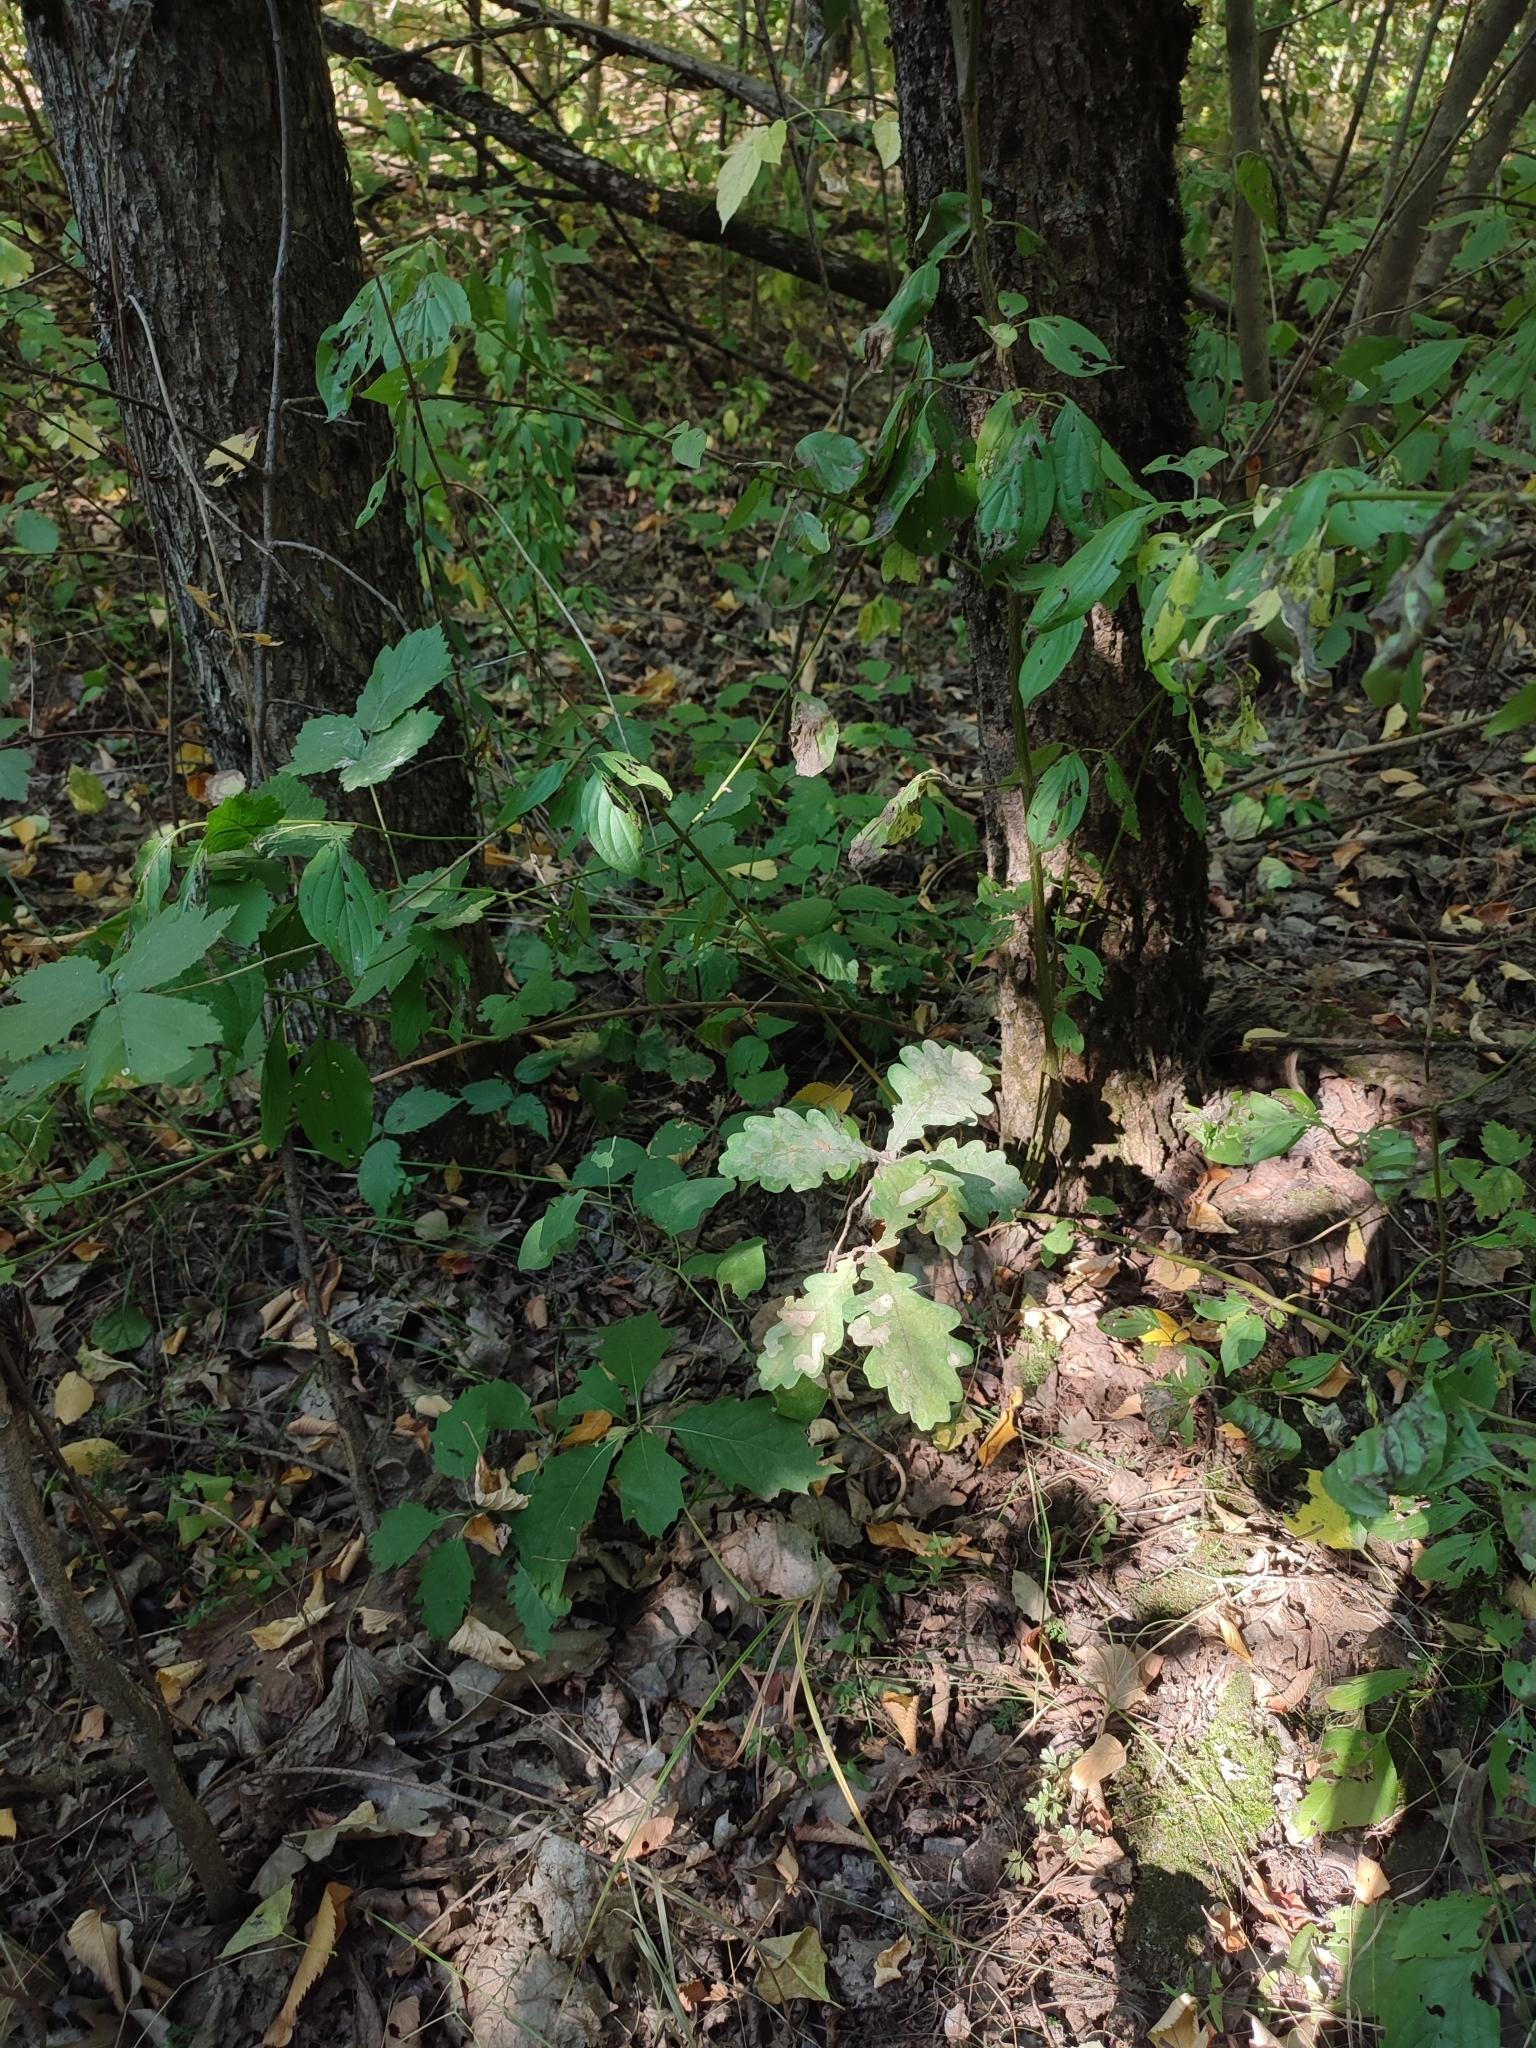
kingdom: Plantae
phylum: Tracheophyta
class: Magnoliopsida
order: Fagales
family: Fagaceae
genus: Quercus
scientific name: Quercus robur
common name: Pedunculate oak
